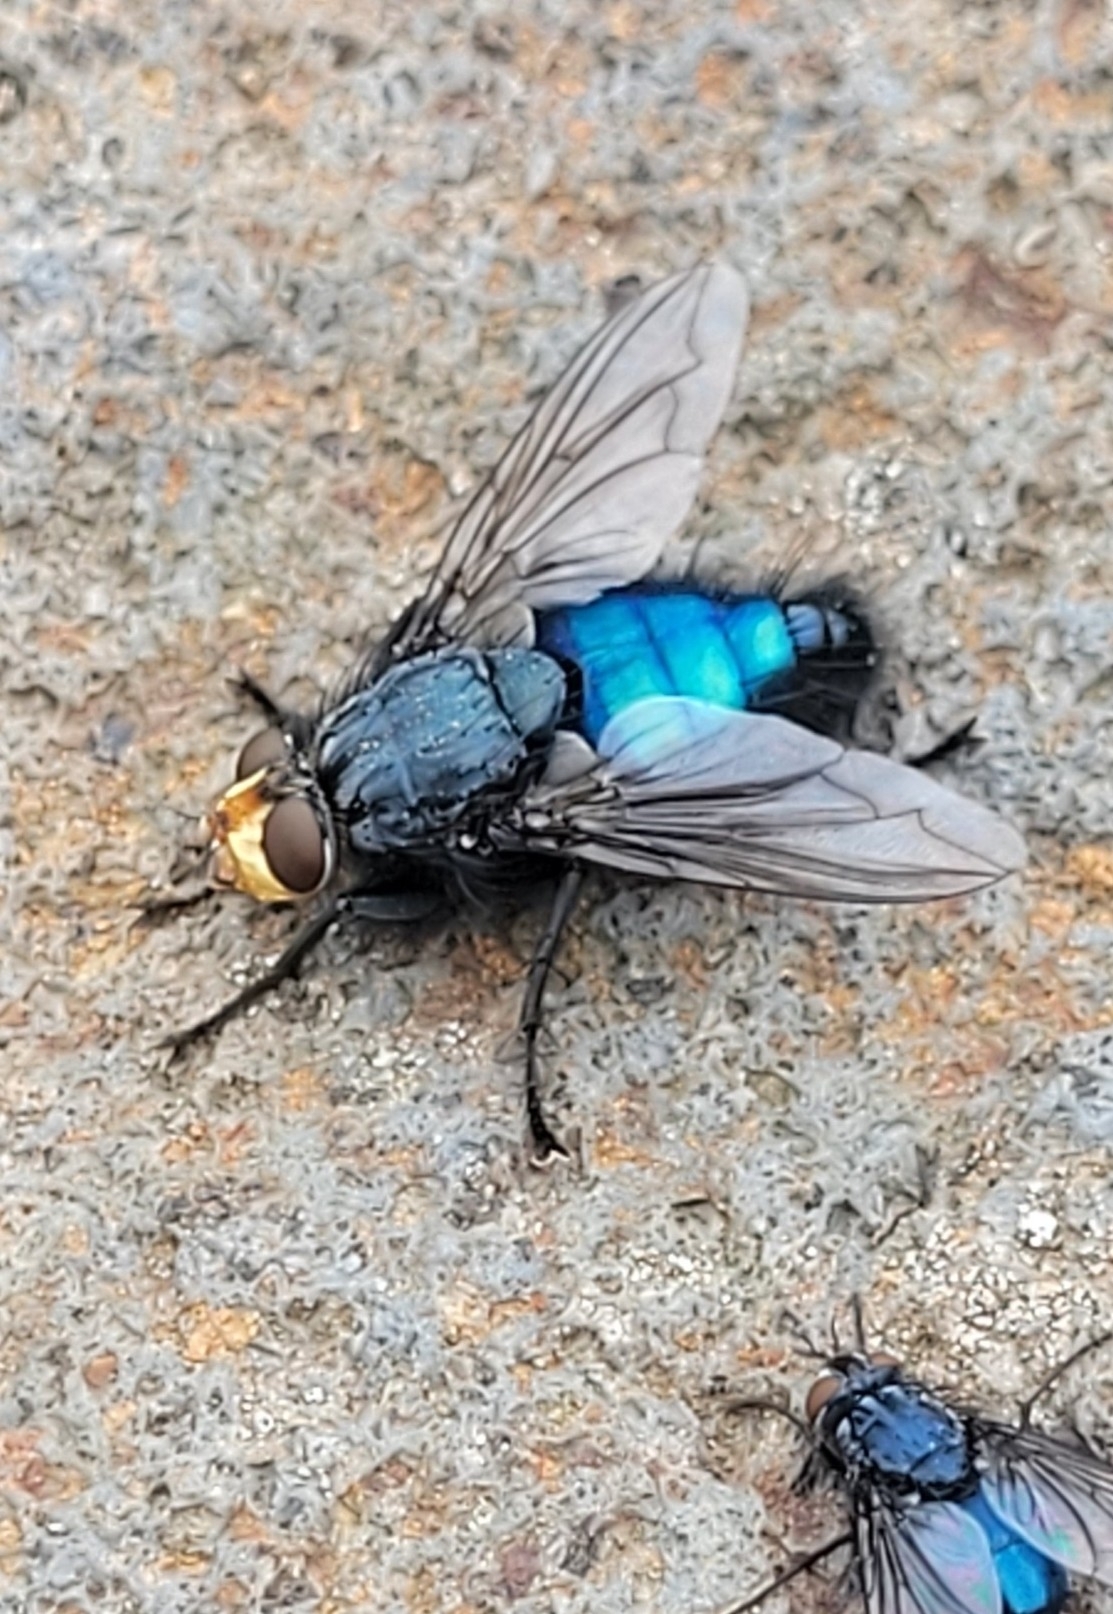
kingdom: Animalia
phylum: Arthropoda
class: Insecta
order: Diptera
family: Calliphoridae
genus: Cynomya
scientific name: Cynomya mortuorum
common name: Bluebottle blow fly
